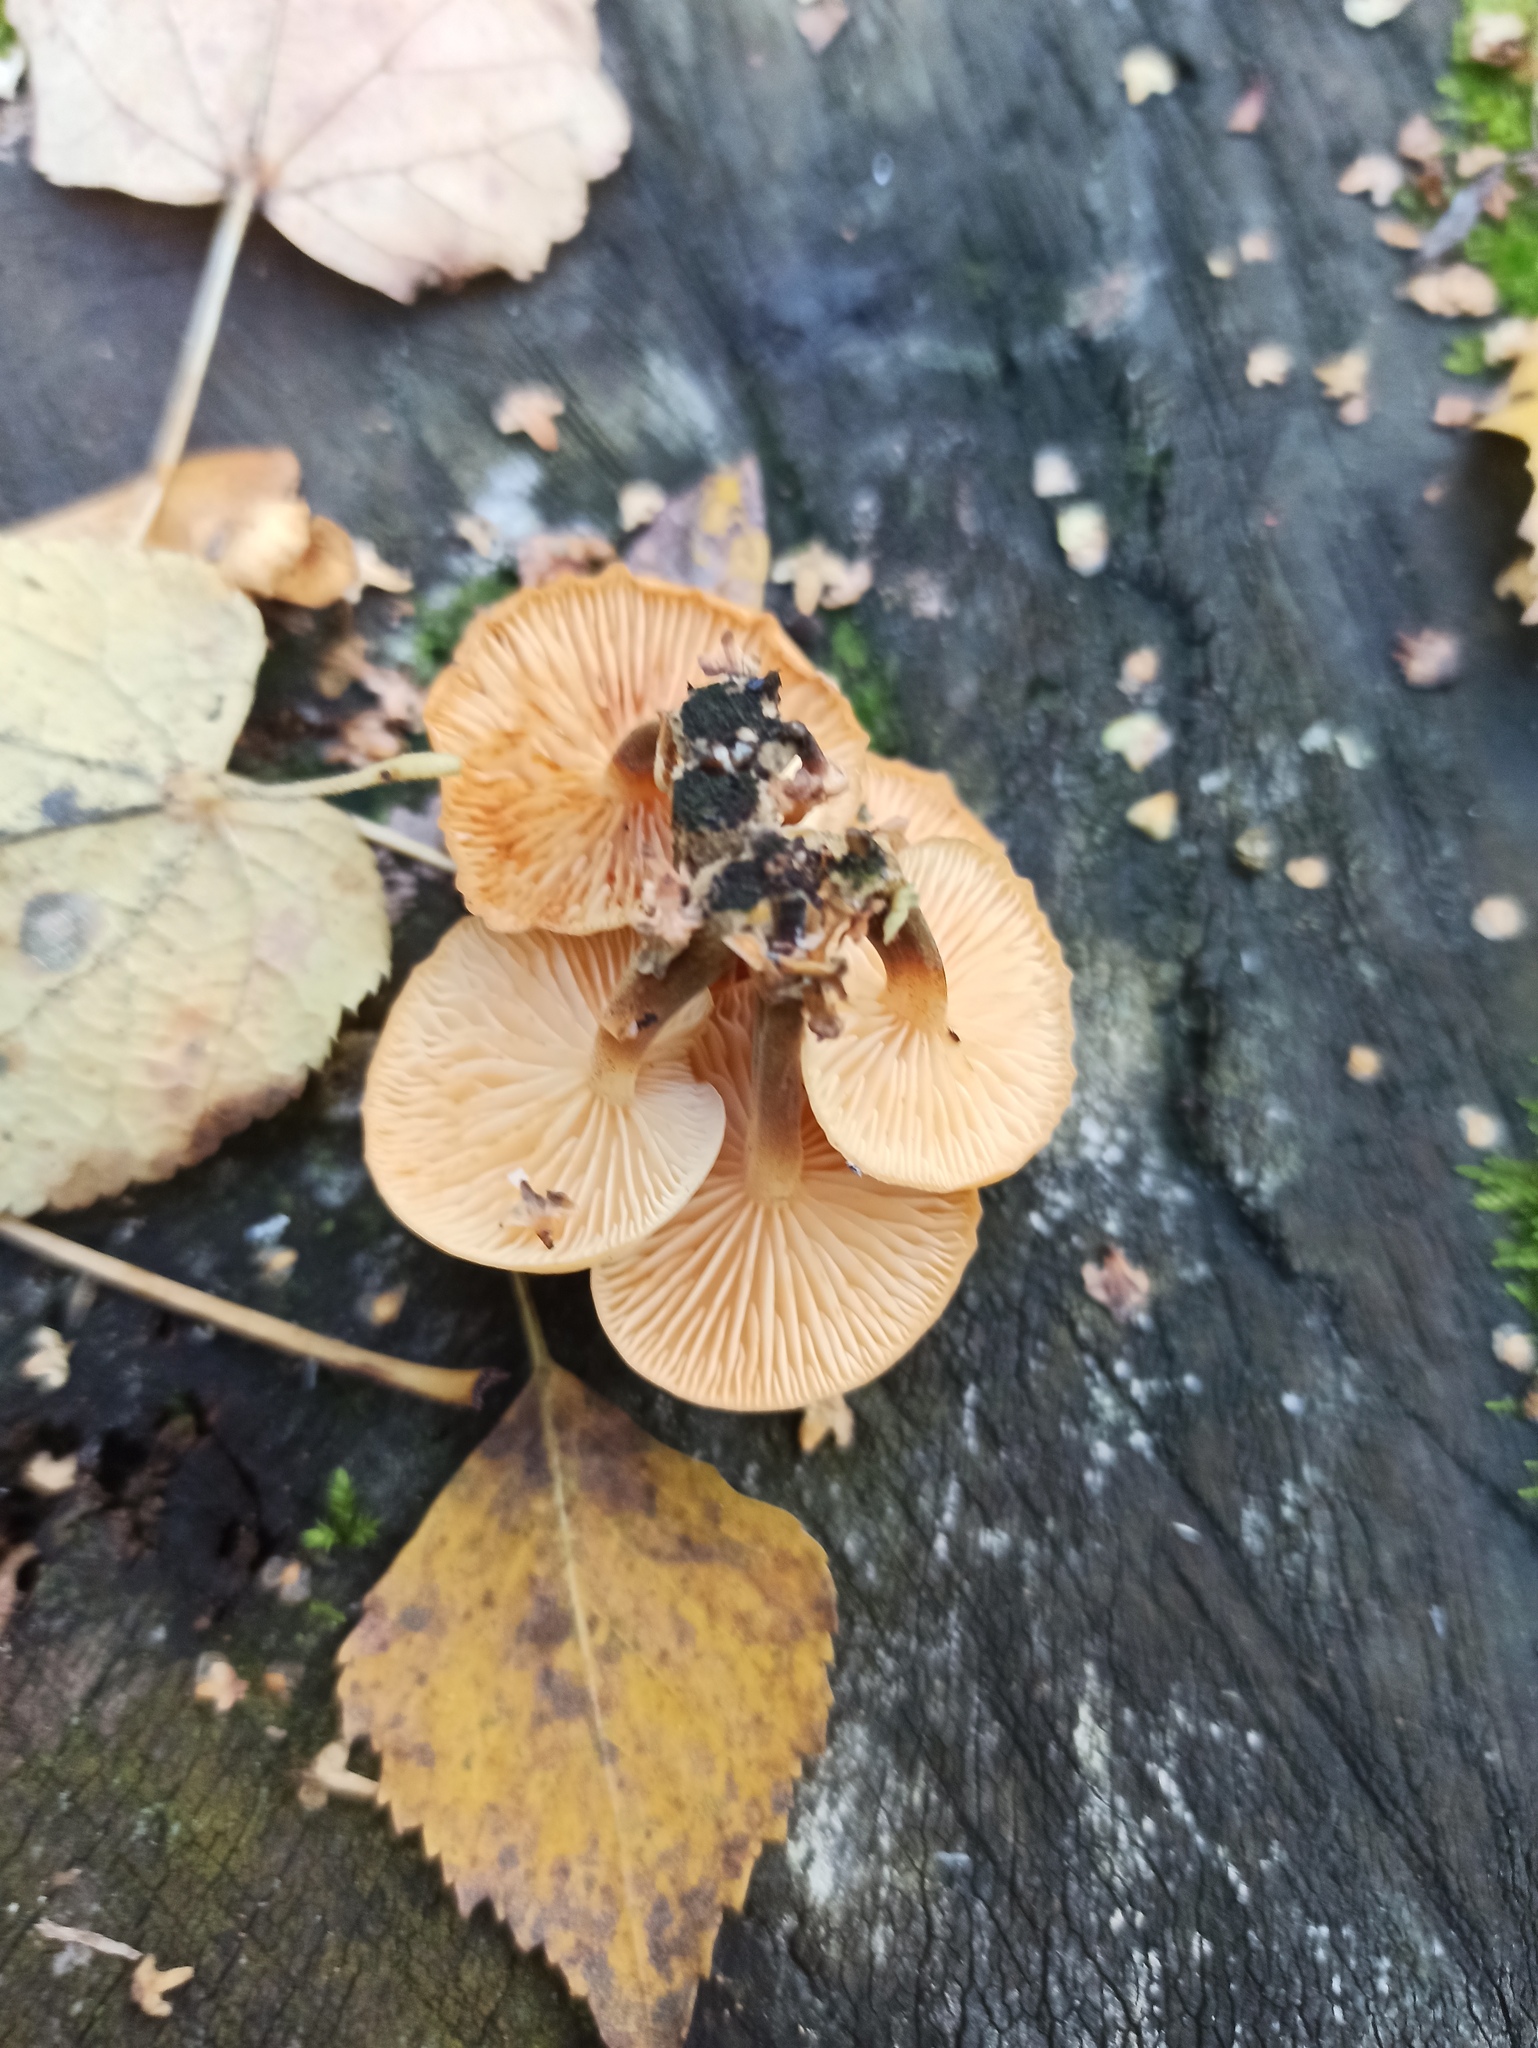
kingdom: Fungi
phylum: Basidiomycota
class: Agaricomycetes
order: Agaricales
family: Physalacriaceae
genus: Flammulina
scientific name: Flammulina
